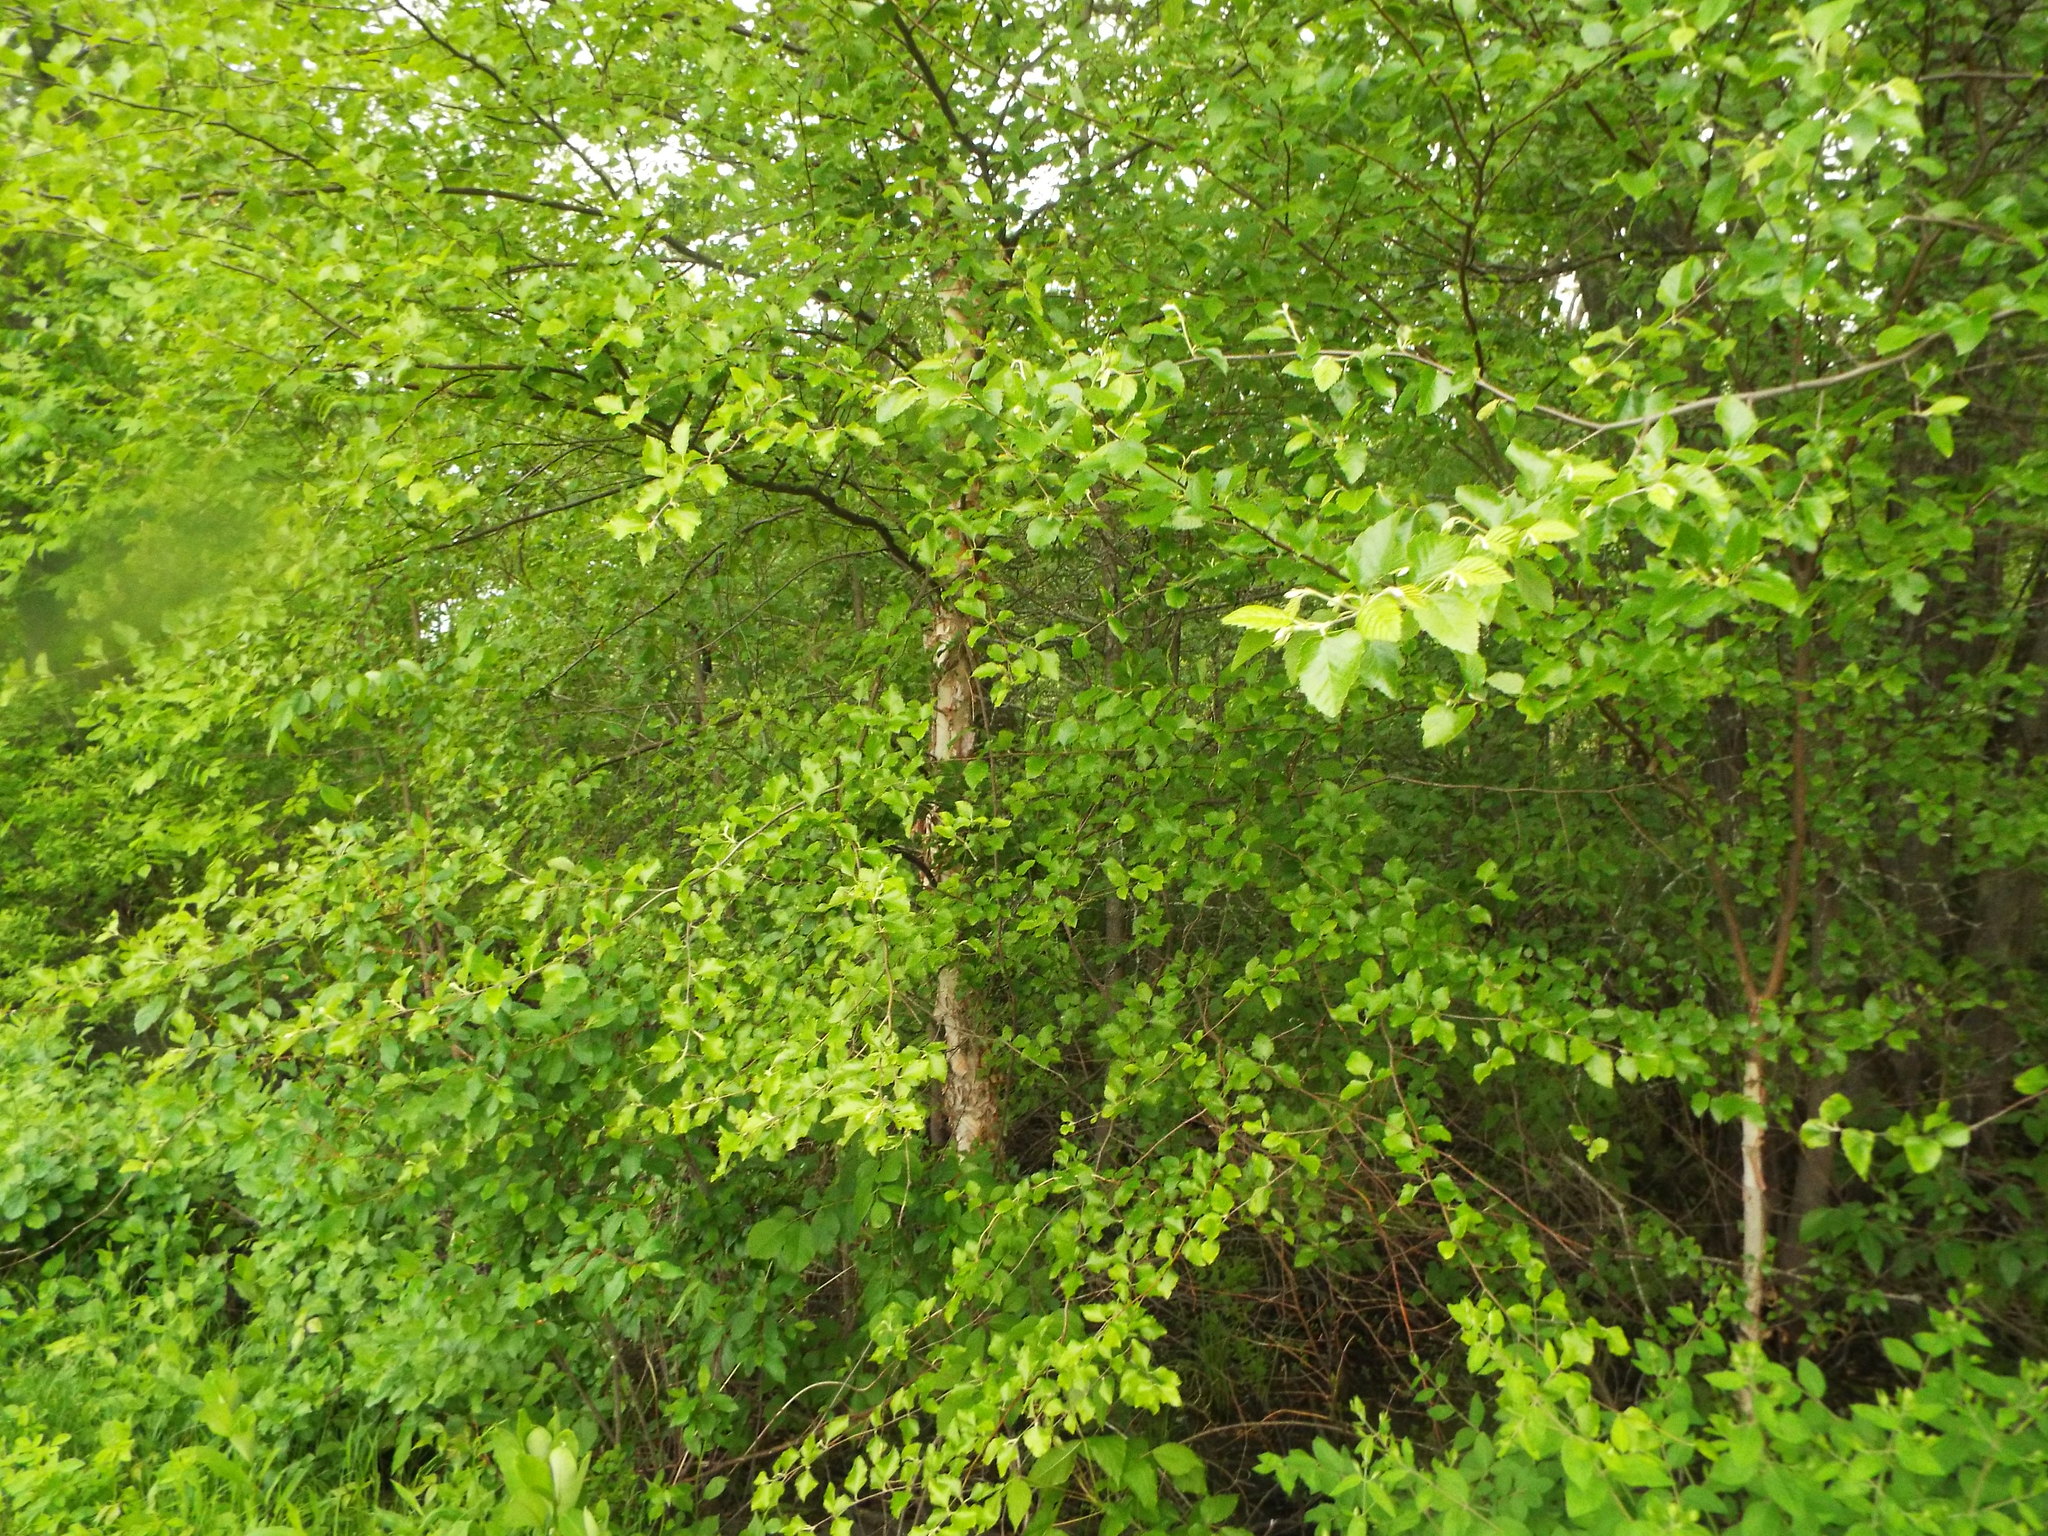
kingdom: Plantae
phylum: Tracheophyta
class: Magnoliopsida
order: Fagales
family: Betulaceae
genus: Betula
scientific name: Betula nigra
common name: Black birch
